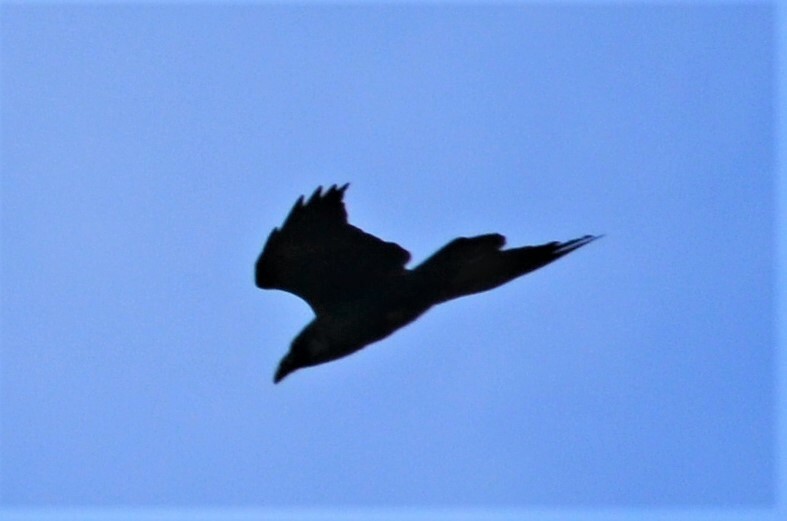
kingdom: Animalia
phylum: Chordata
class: Aves
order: Passeriformes
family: Corvidae
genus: Corvus
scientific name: Corvus corax
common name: Common raven
